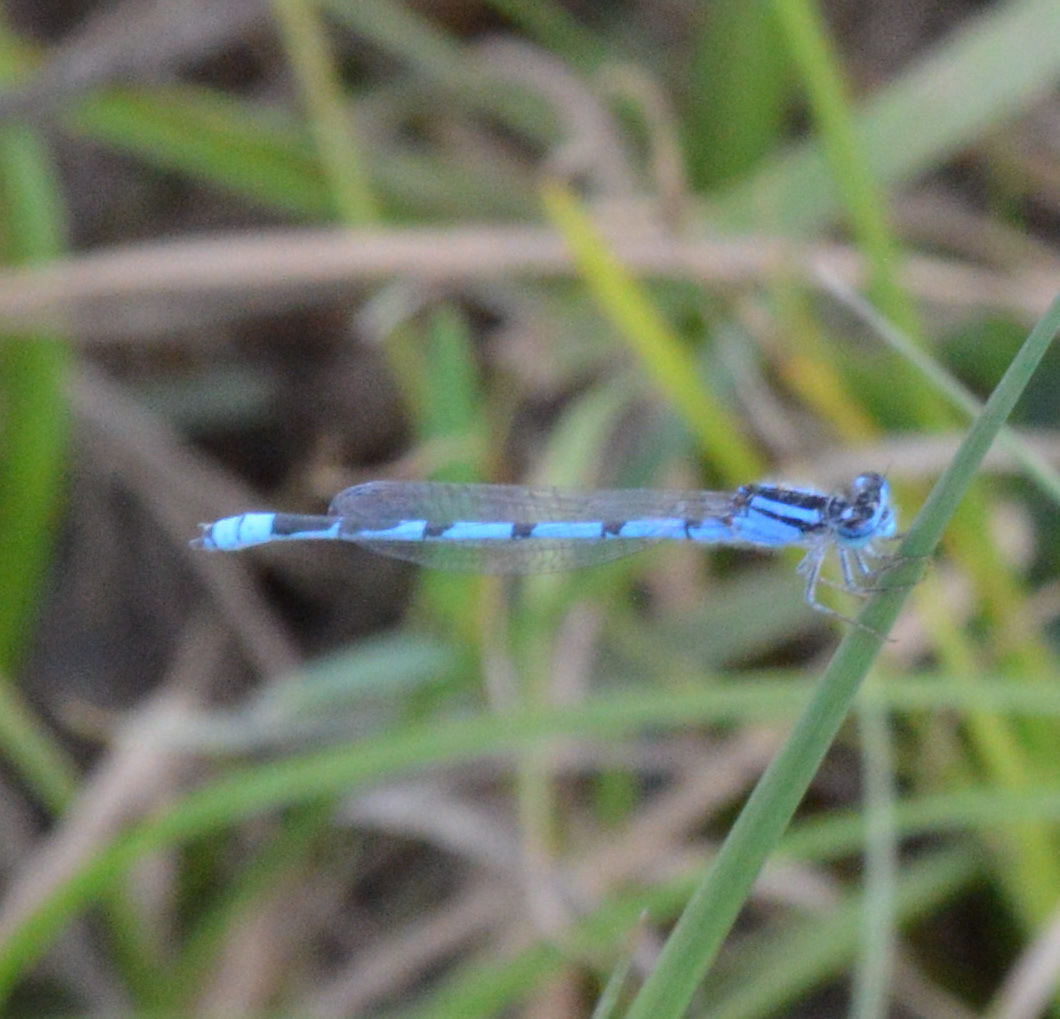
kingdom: Animalia
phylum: Arthropoda
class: Insecta
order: Odonata
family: Coenagrionidae
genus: Enallagma
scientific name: Enallagma civile
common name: Damselfly
